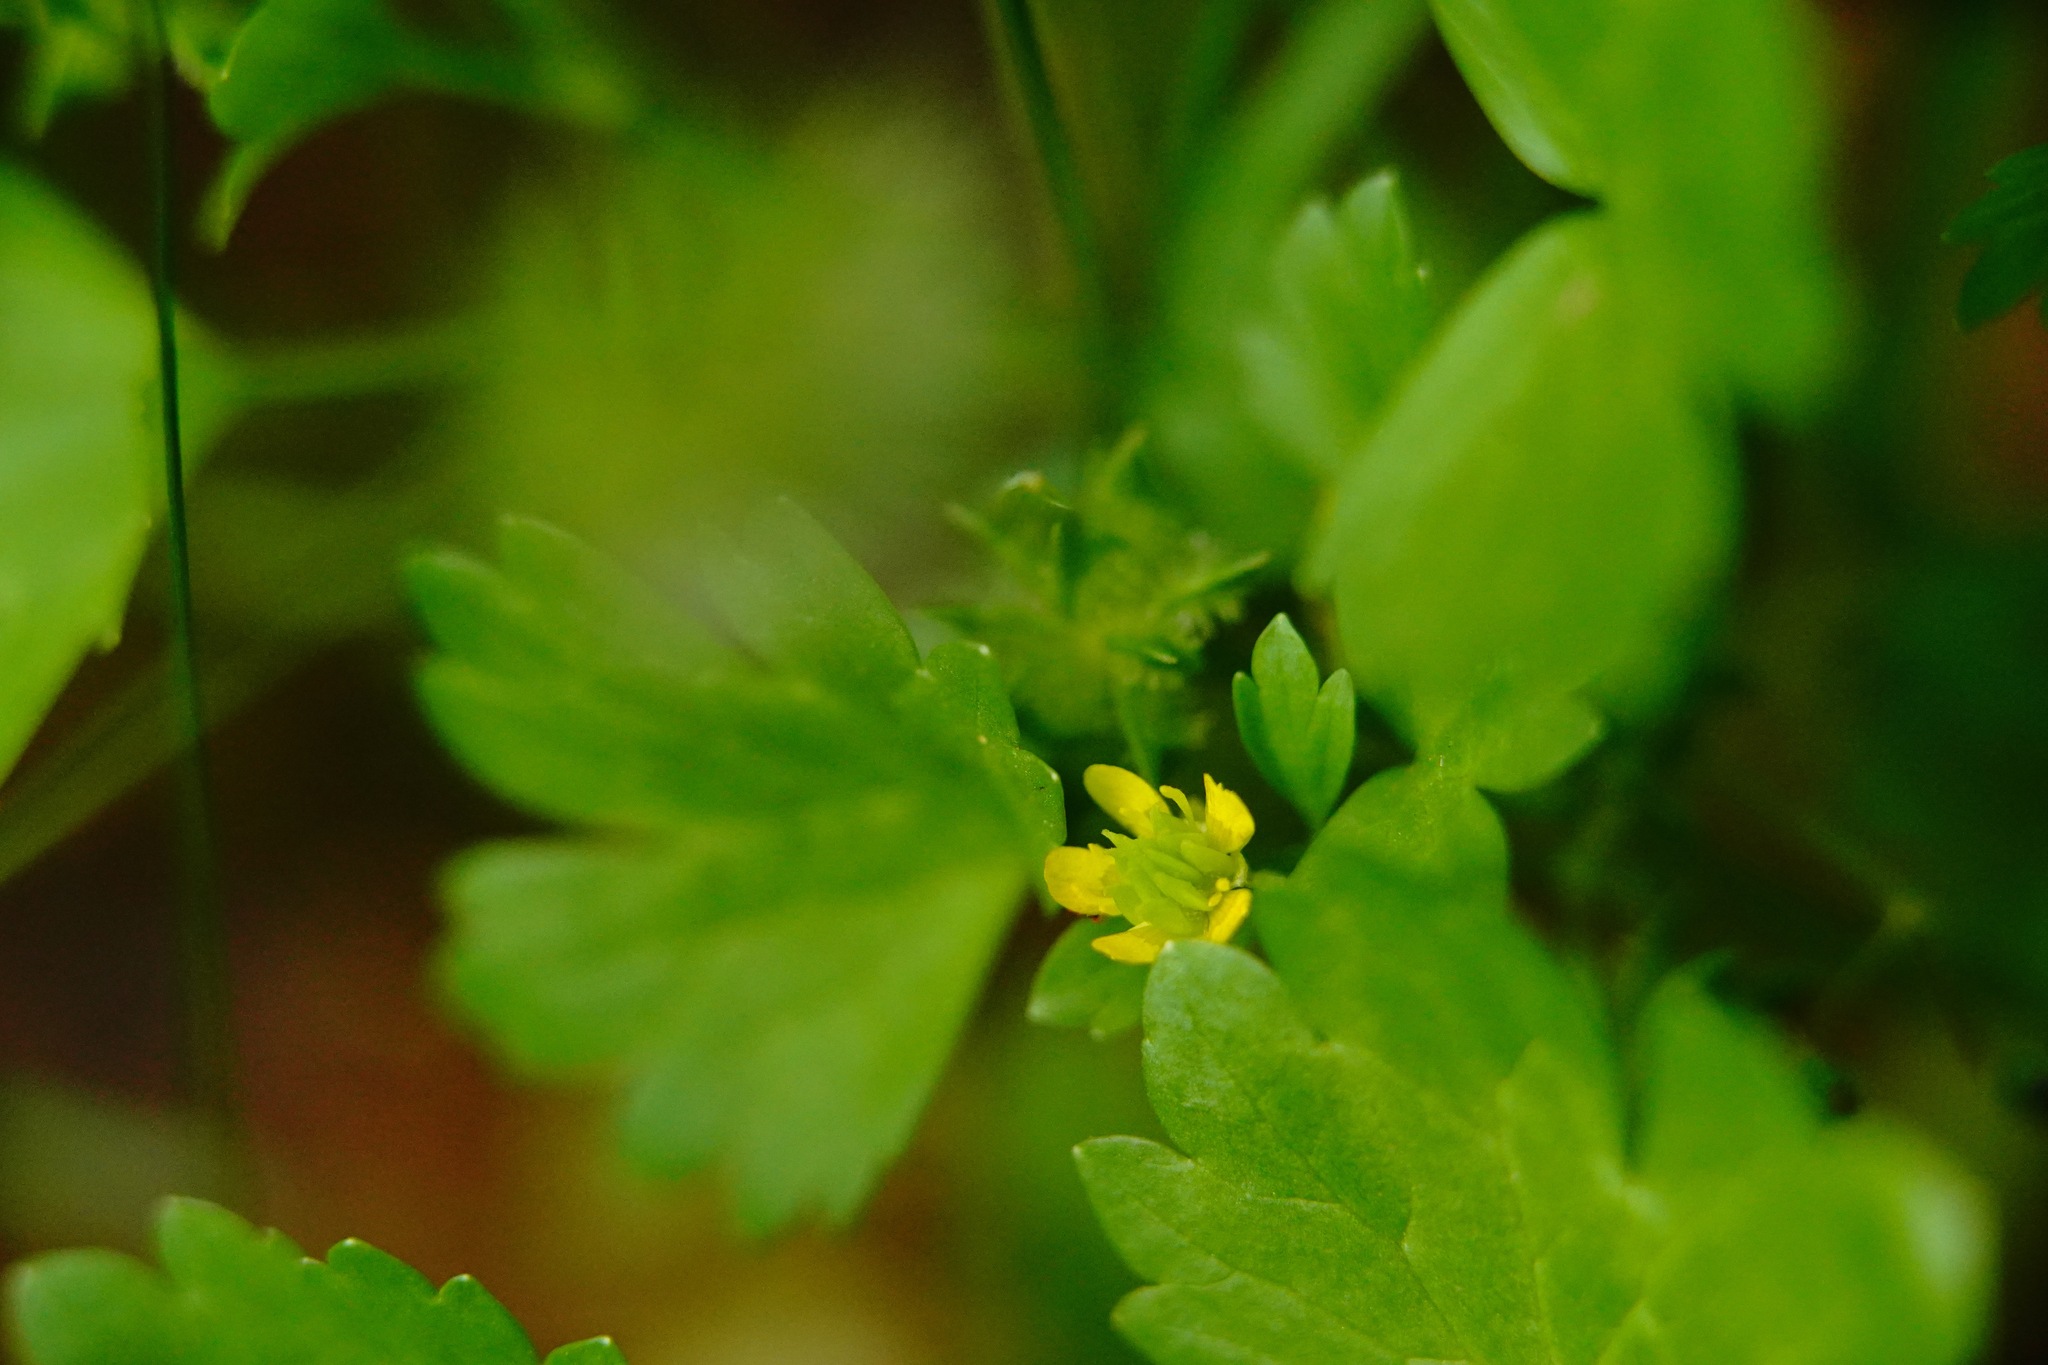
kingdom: Plantae
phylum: Tracheophyta
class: Magnoliopsida
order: Ranunculales
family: Ranunculaceae
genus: Ranunculus
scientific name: Ranunculus muricatus
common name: Rough-fruited buttercup
